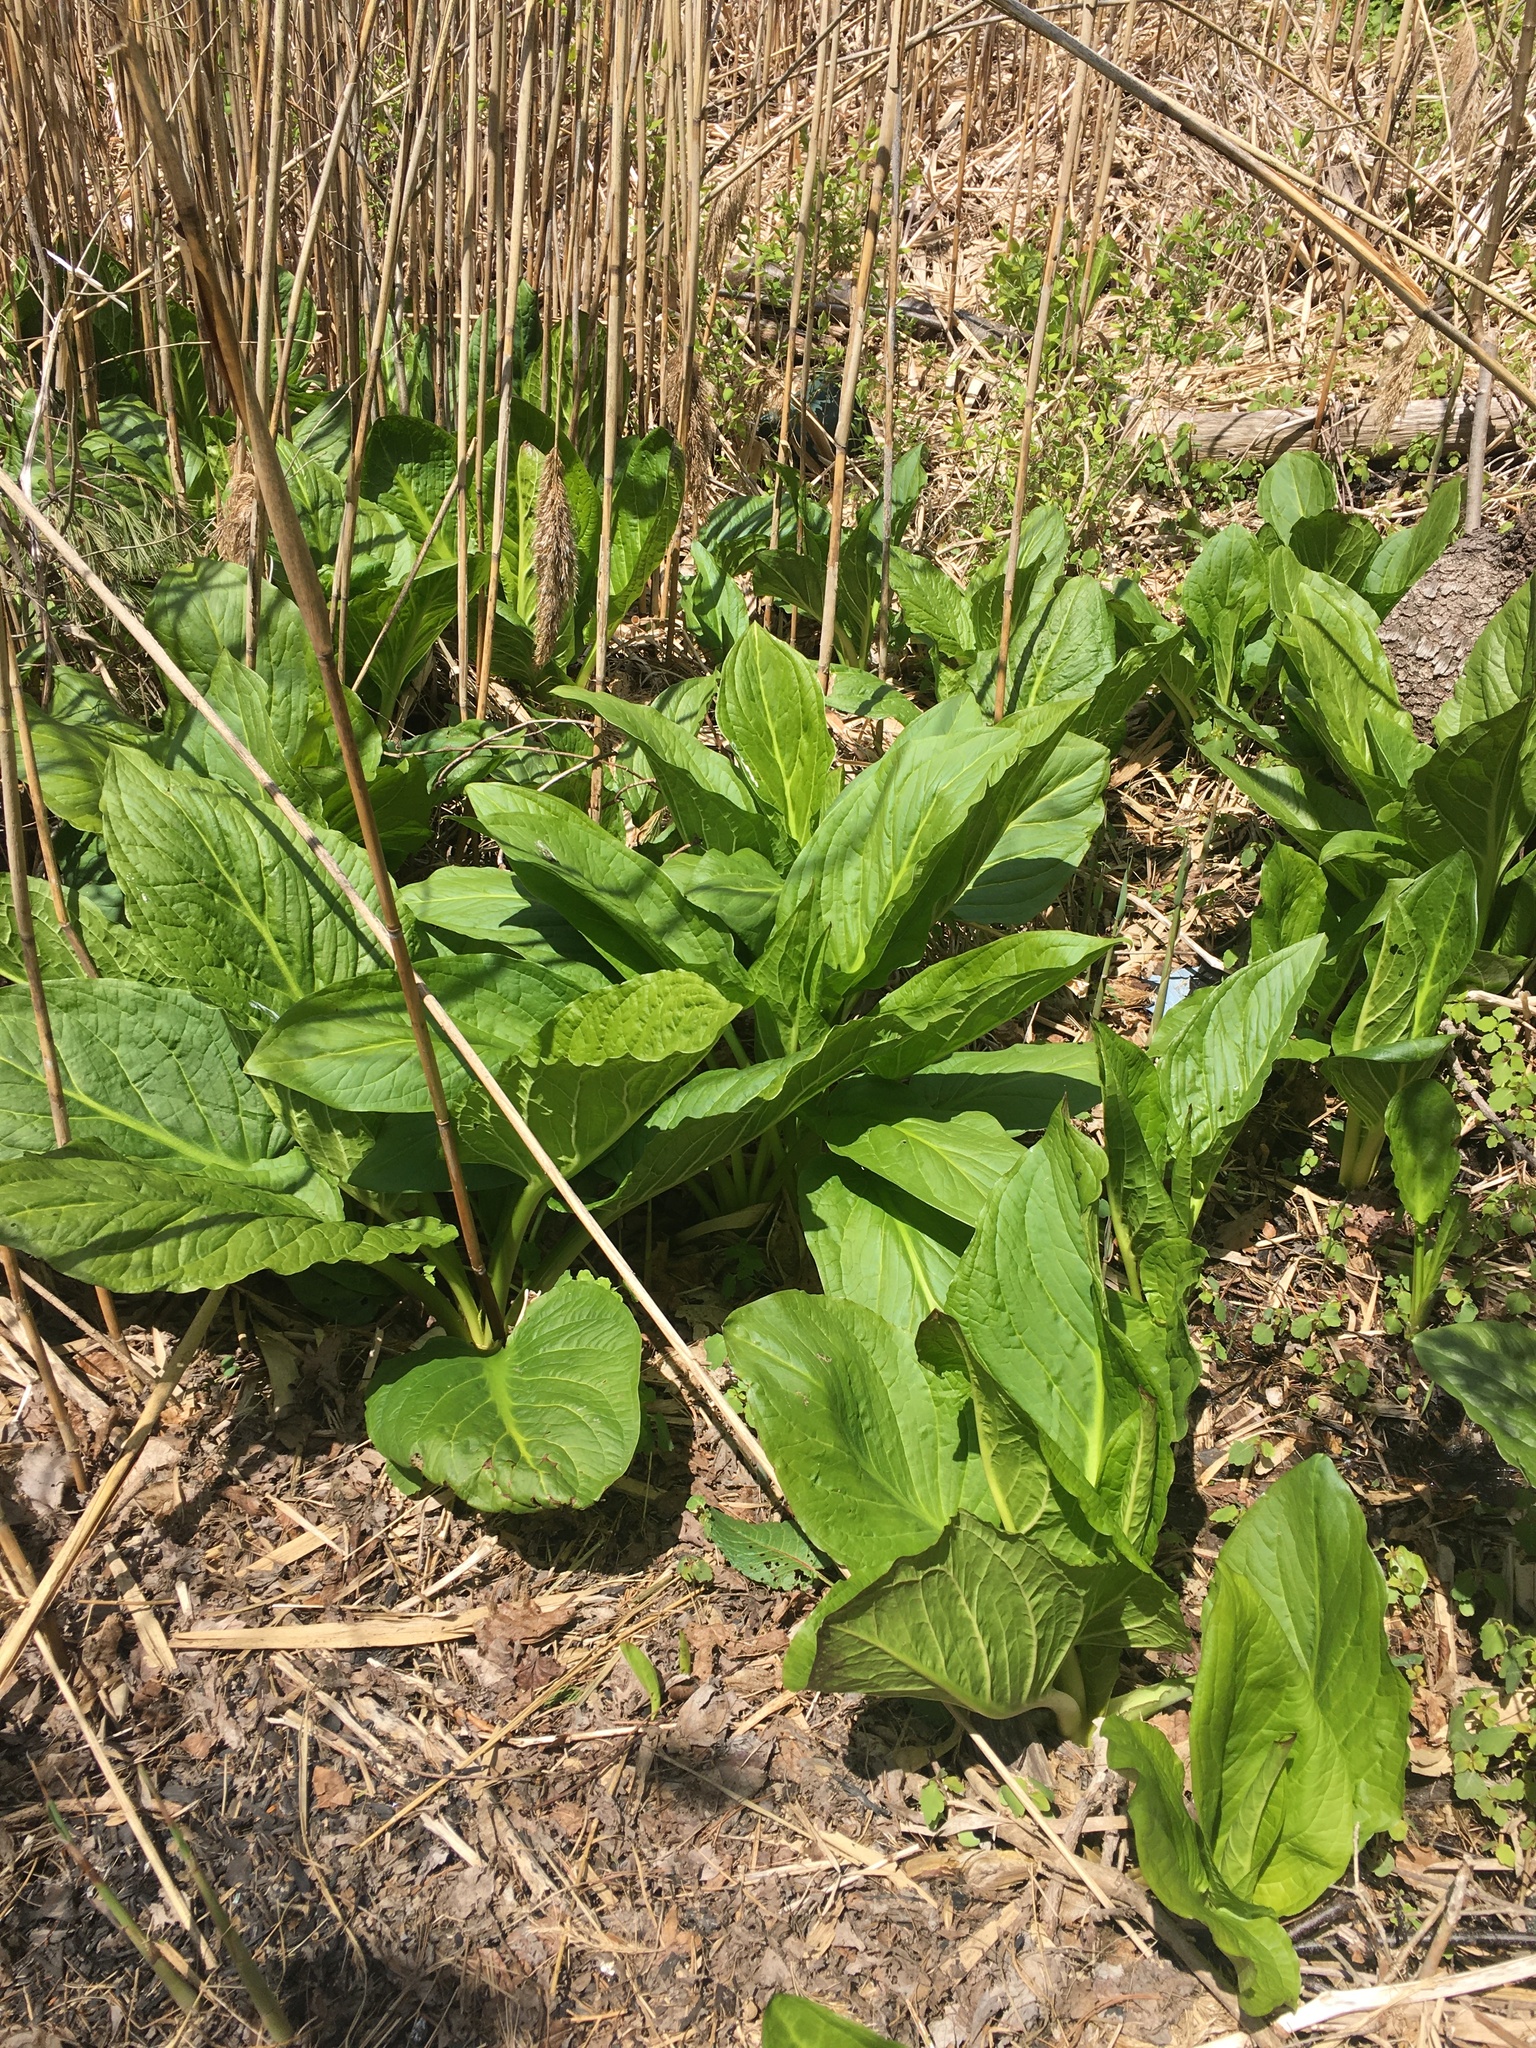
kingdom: Plantae
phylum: Tracheophyta
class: Liliopsida
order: Alismatales
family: Araceae
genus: Symplocarpus
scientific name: Symplocarpus foetidus
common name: Eastern skunk cabbage
